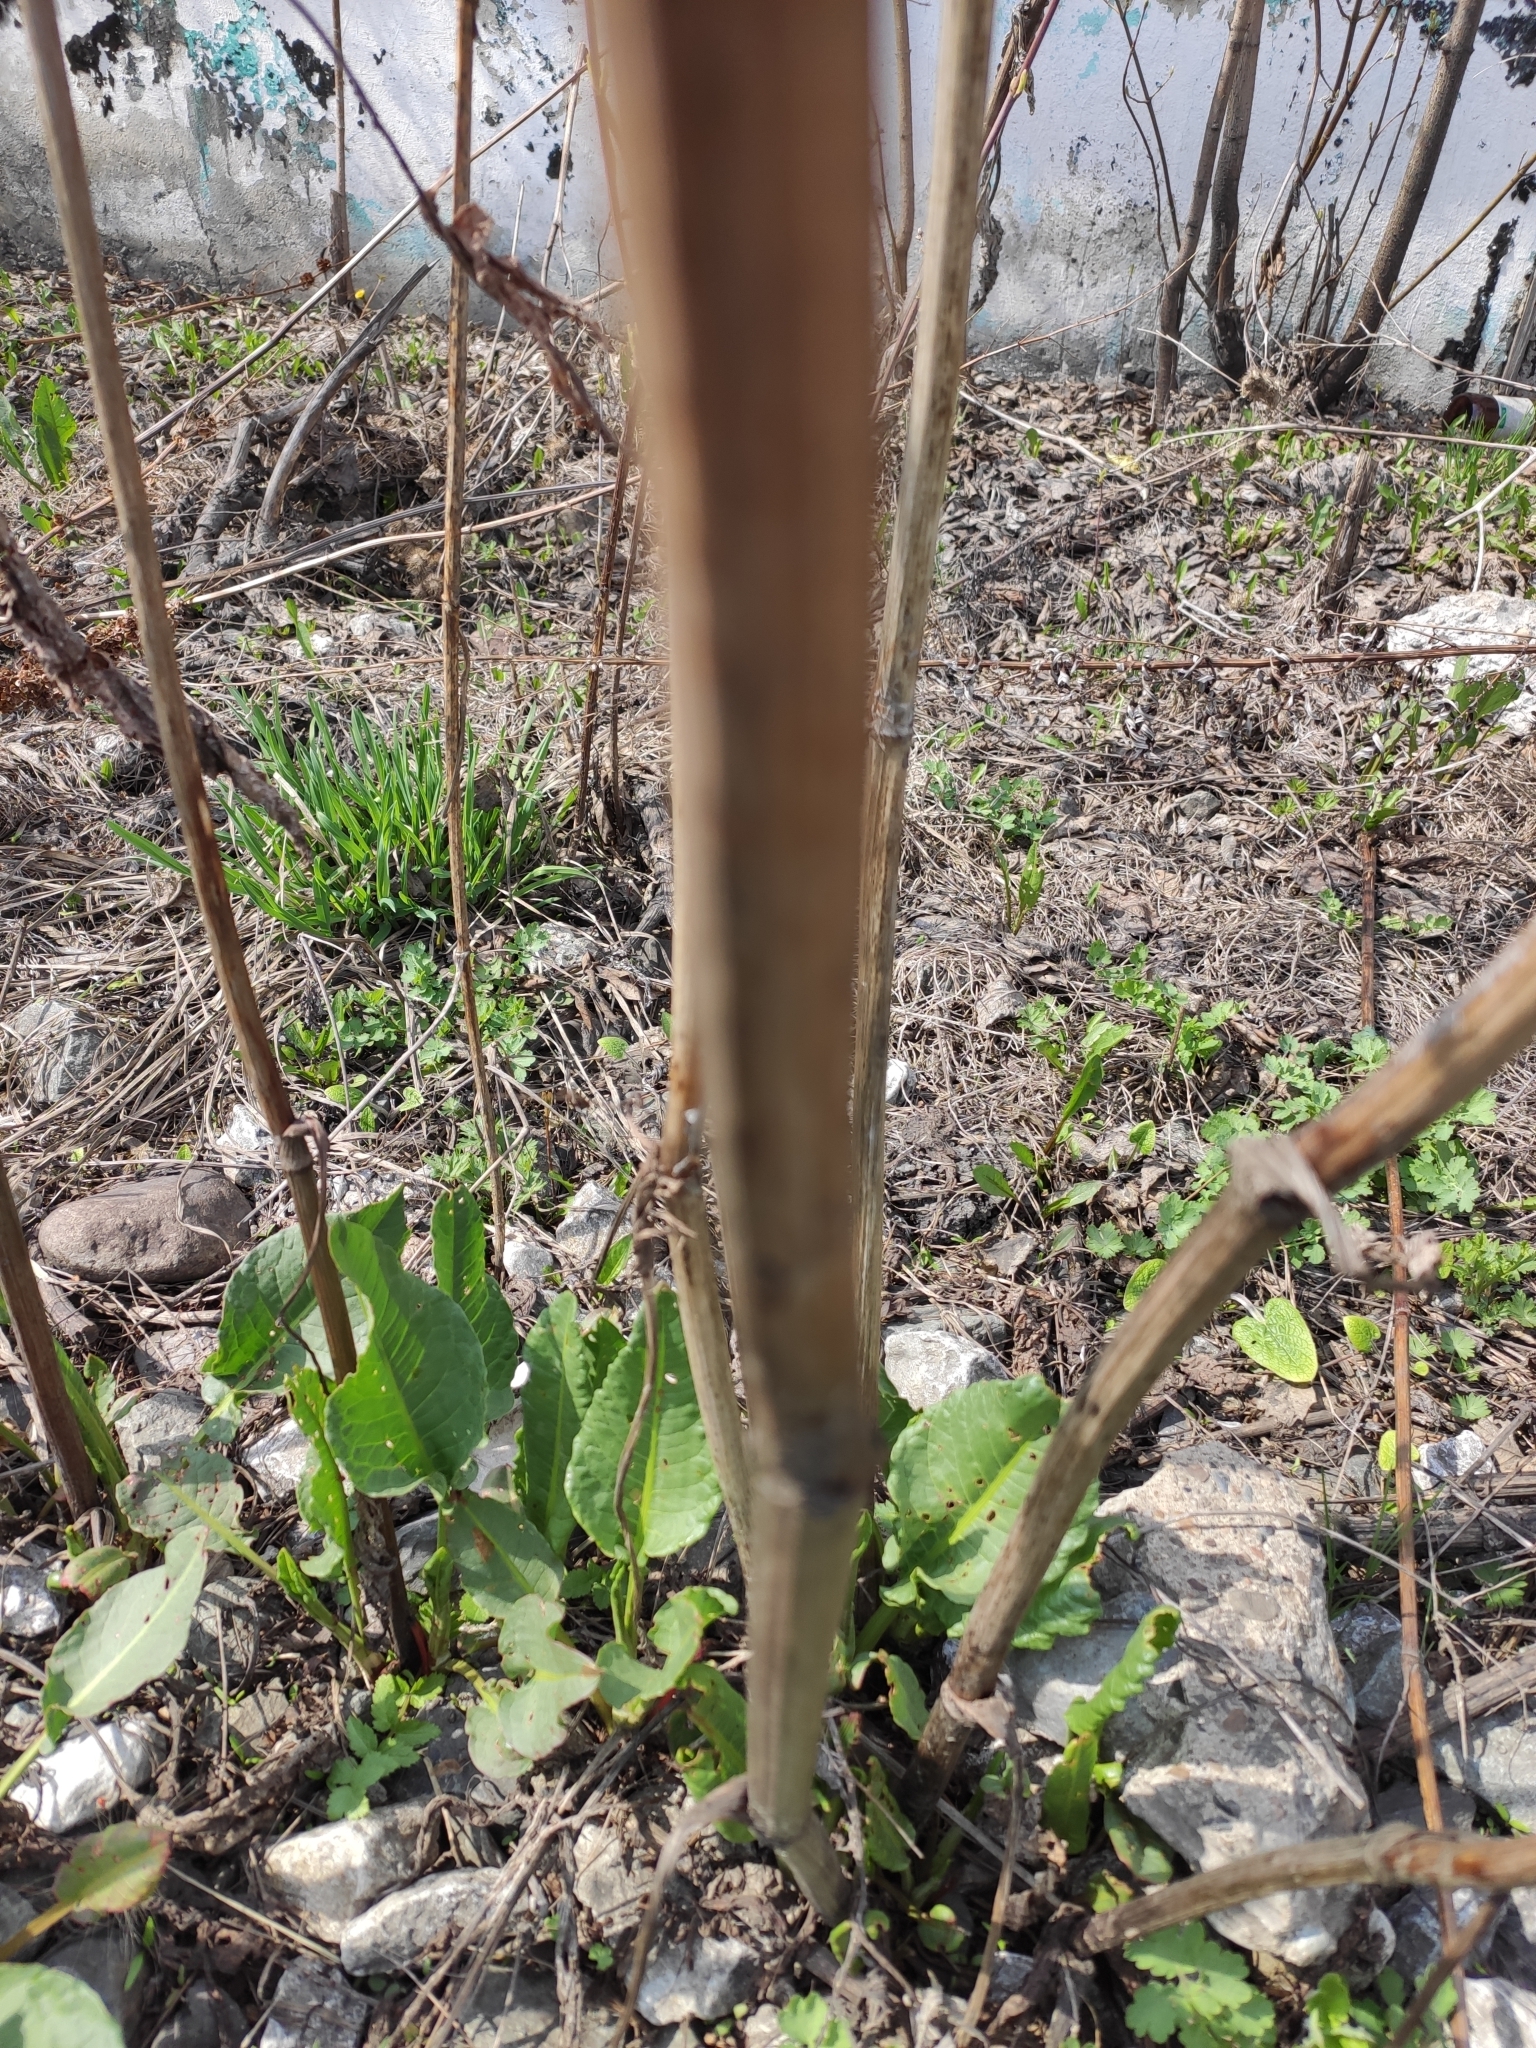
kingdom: Plantae
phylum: Tracheophyta
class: Magnoliopsida
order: Caryophyllales
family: Polygonaceae
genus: Rumex
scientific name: Rumex crispus
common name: Curled dock
